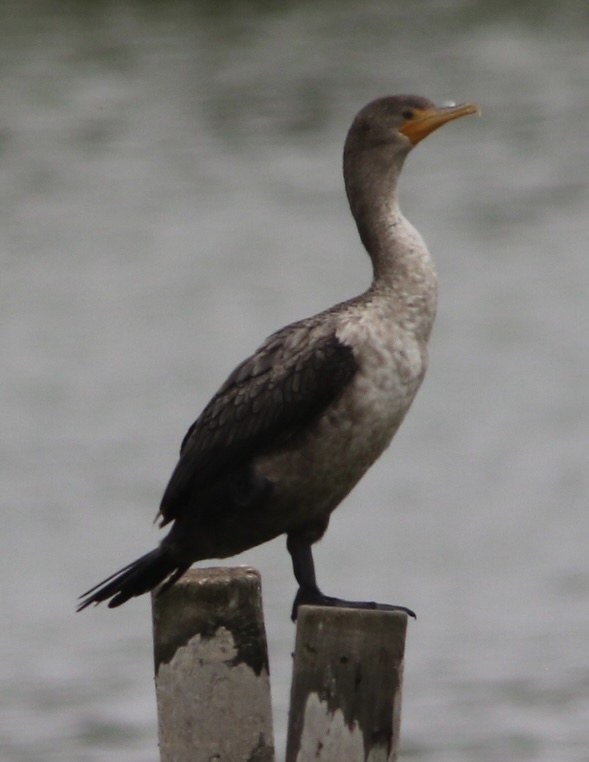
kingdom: Animalia
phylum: Chordata
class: Aves
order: Suliformes
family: Phalacrocoracidae
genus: Phalacrocorax
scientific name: Phalacrocorax auritus
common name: Double-crested cormorant
